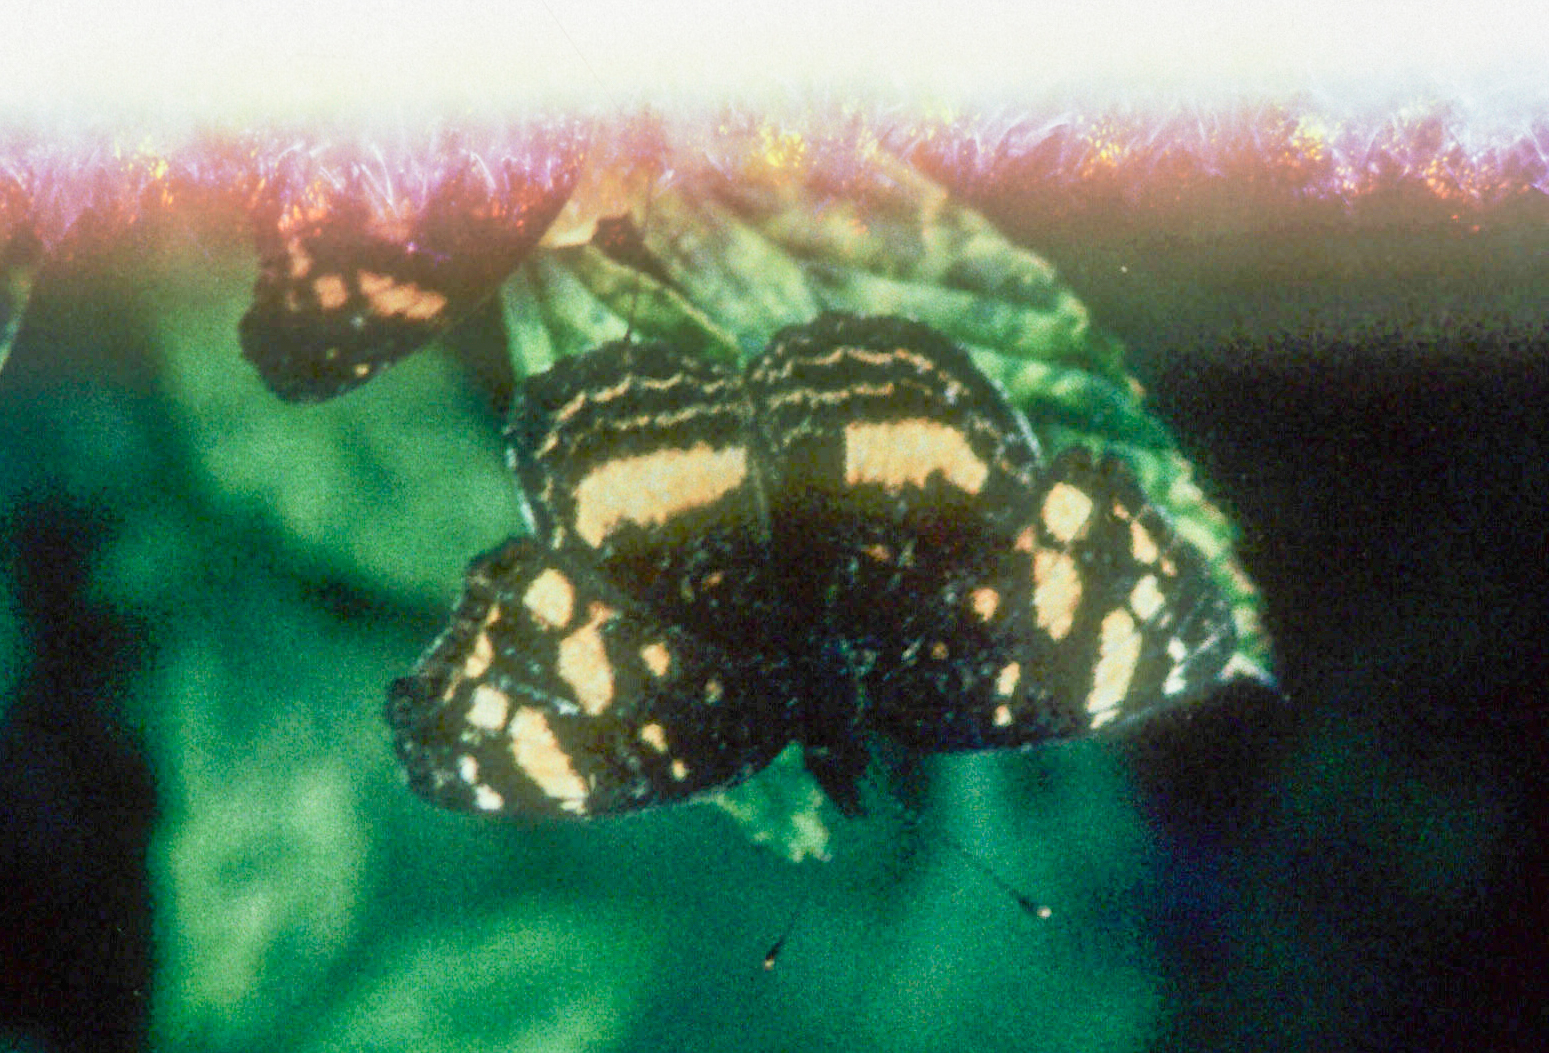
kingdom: Animalia
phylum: Arthropoda
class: Insecta
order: Lepidoptera
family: Nymphalidae
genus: Anthanassa
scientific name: Anthanassa drusilla
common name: Orange-patched crescent
